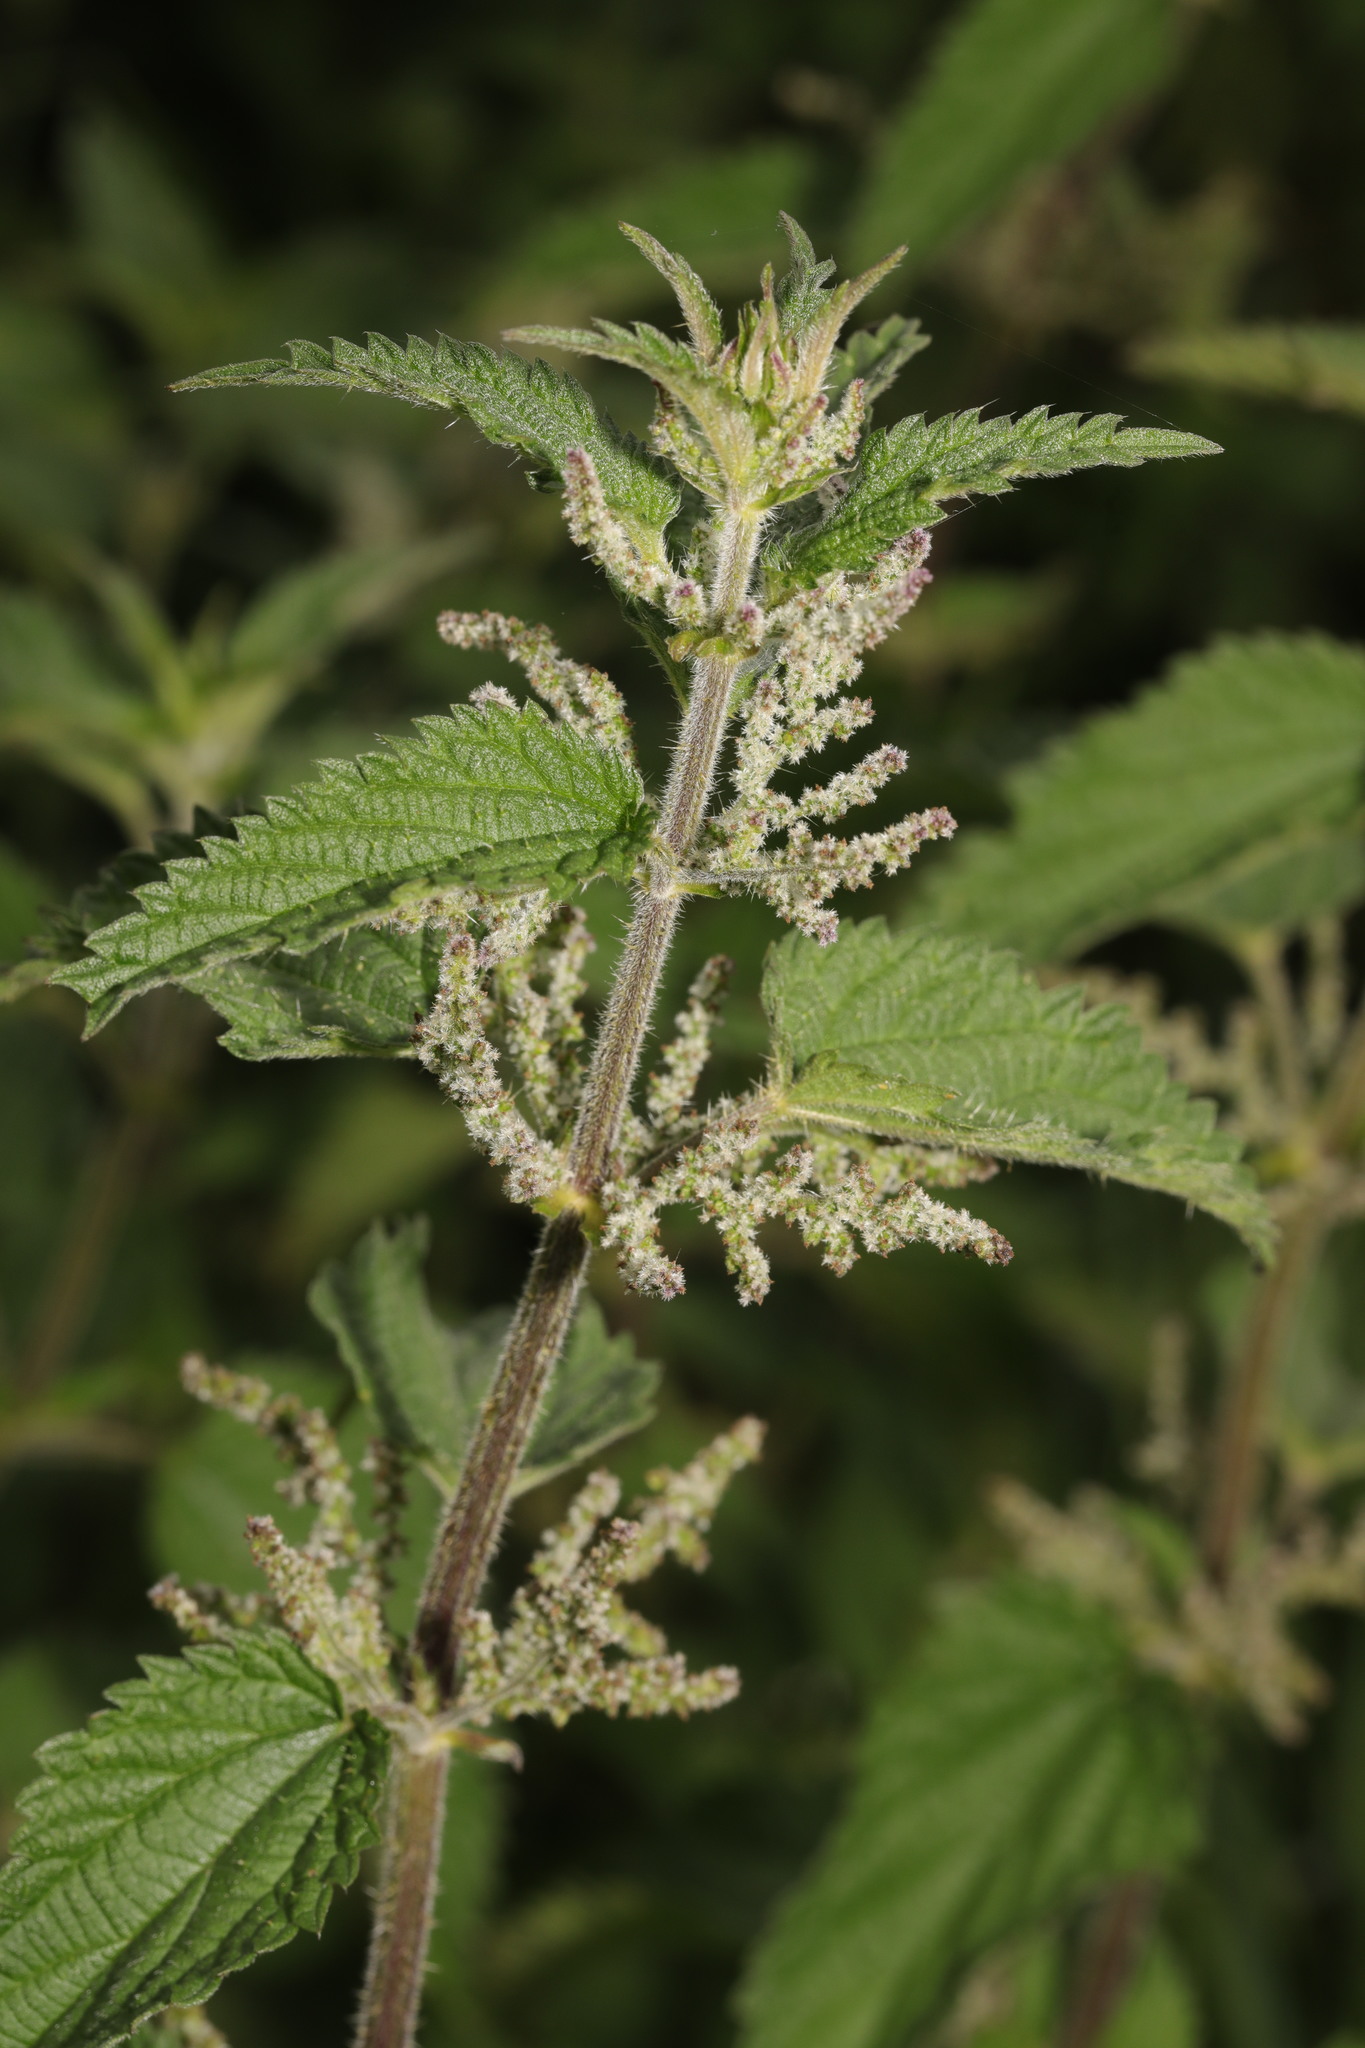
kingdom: Plantae
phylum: Tracheophyta
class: Magnoliopsida
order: Rosales
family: Urticaceae
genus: Urtica
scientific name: Urtica dioica
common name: Common nettle
